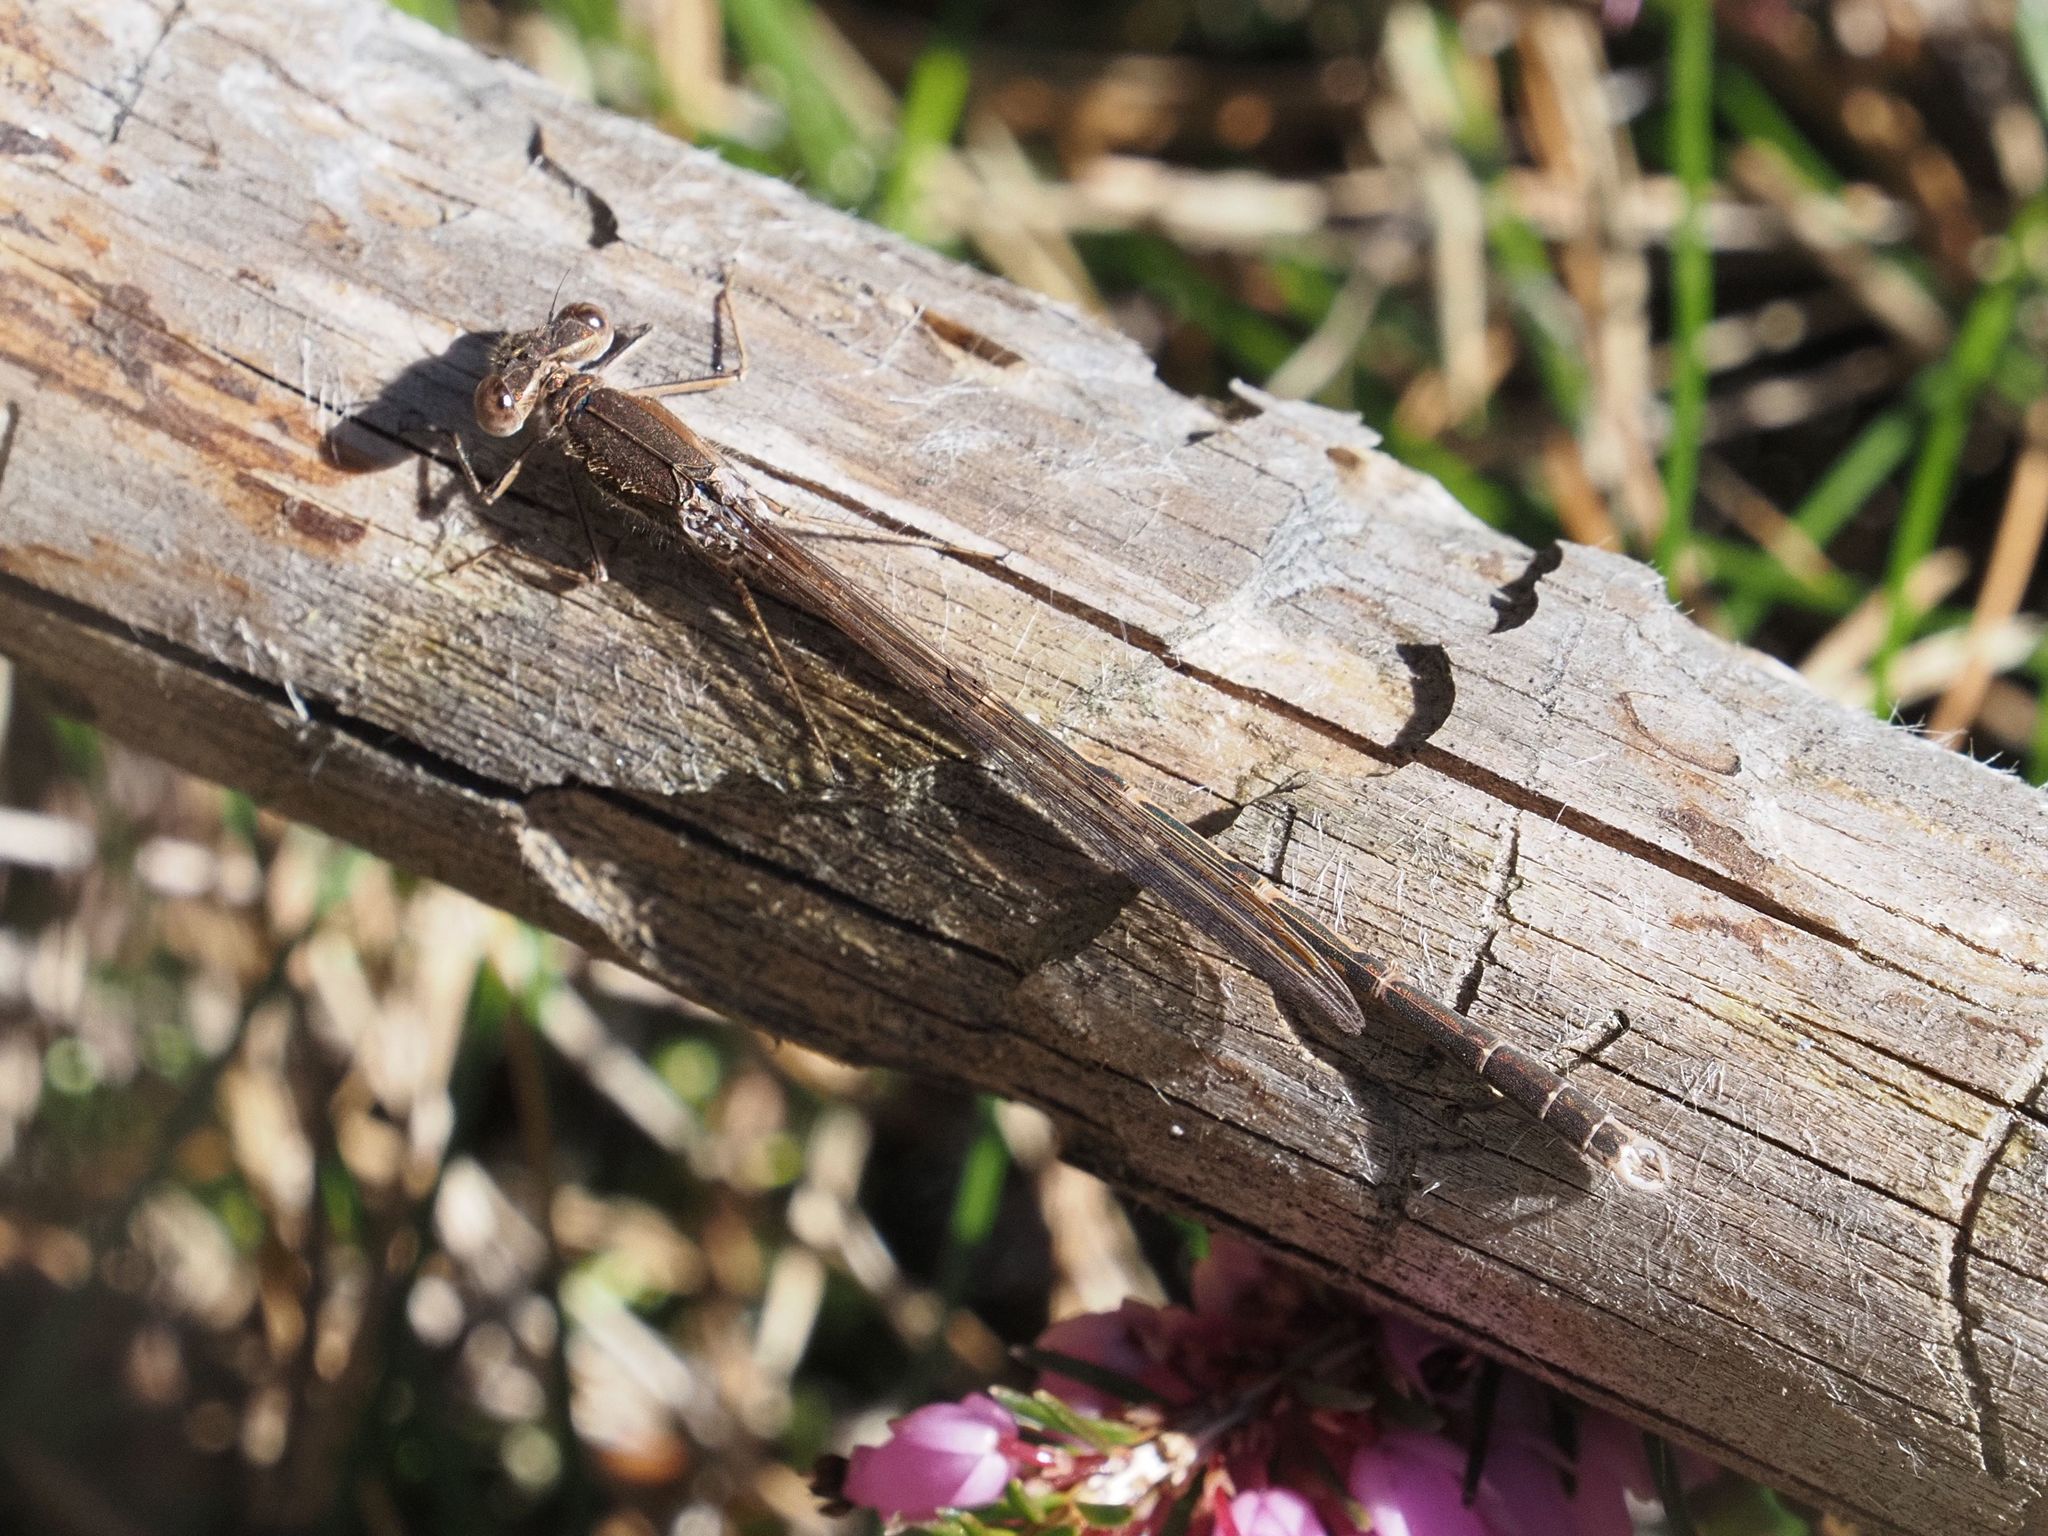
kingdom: Animalia
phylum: Arthropoda
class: Insecta
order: Odonata
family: Lestidae
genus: Sympecma
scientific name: Sympecma fusca
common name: Common winter damsel
